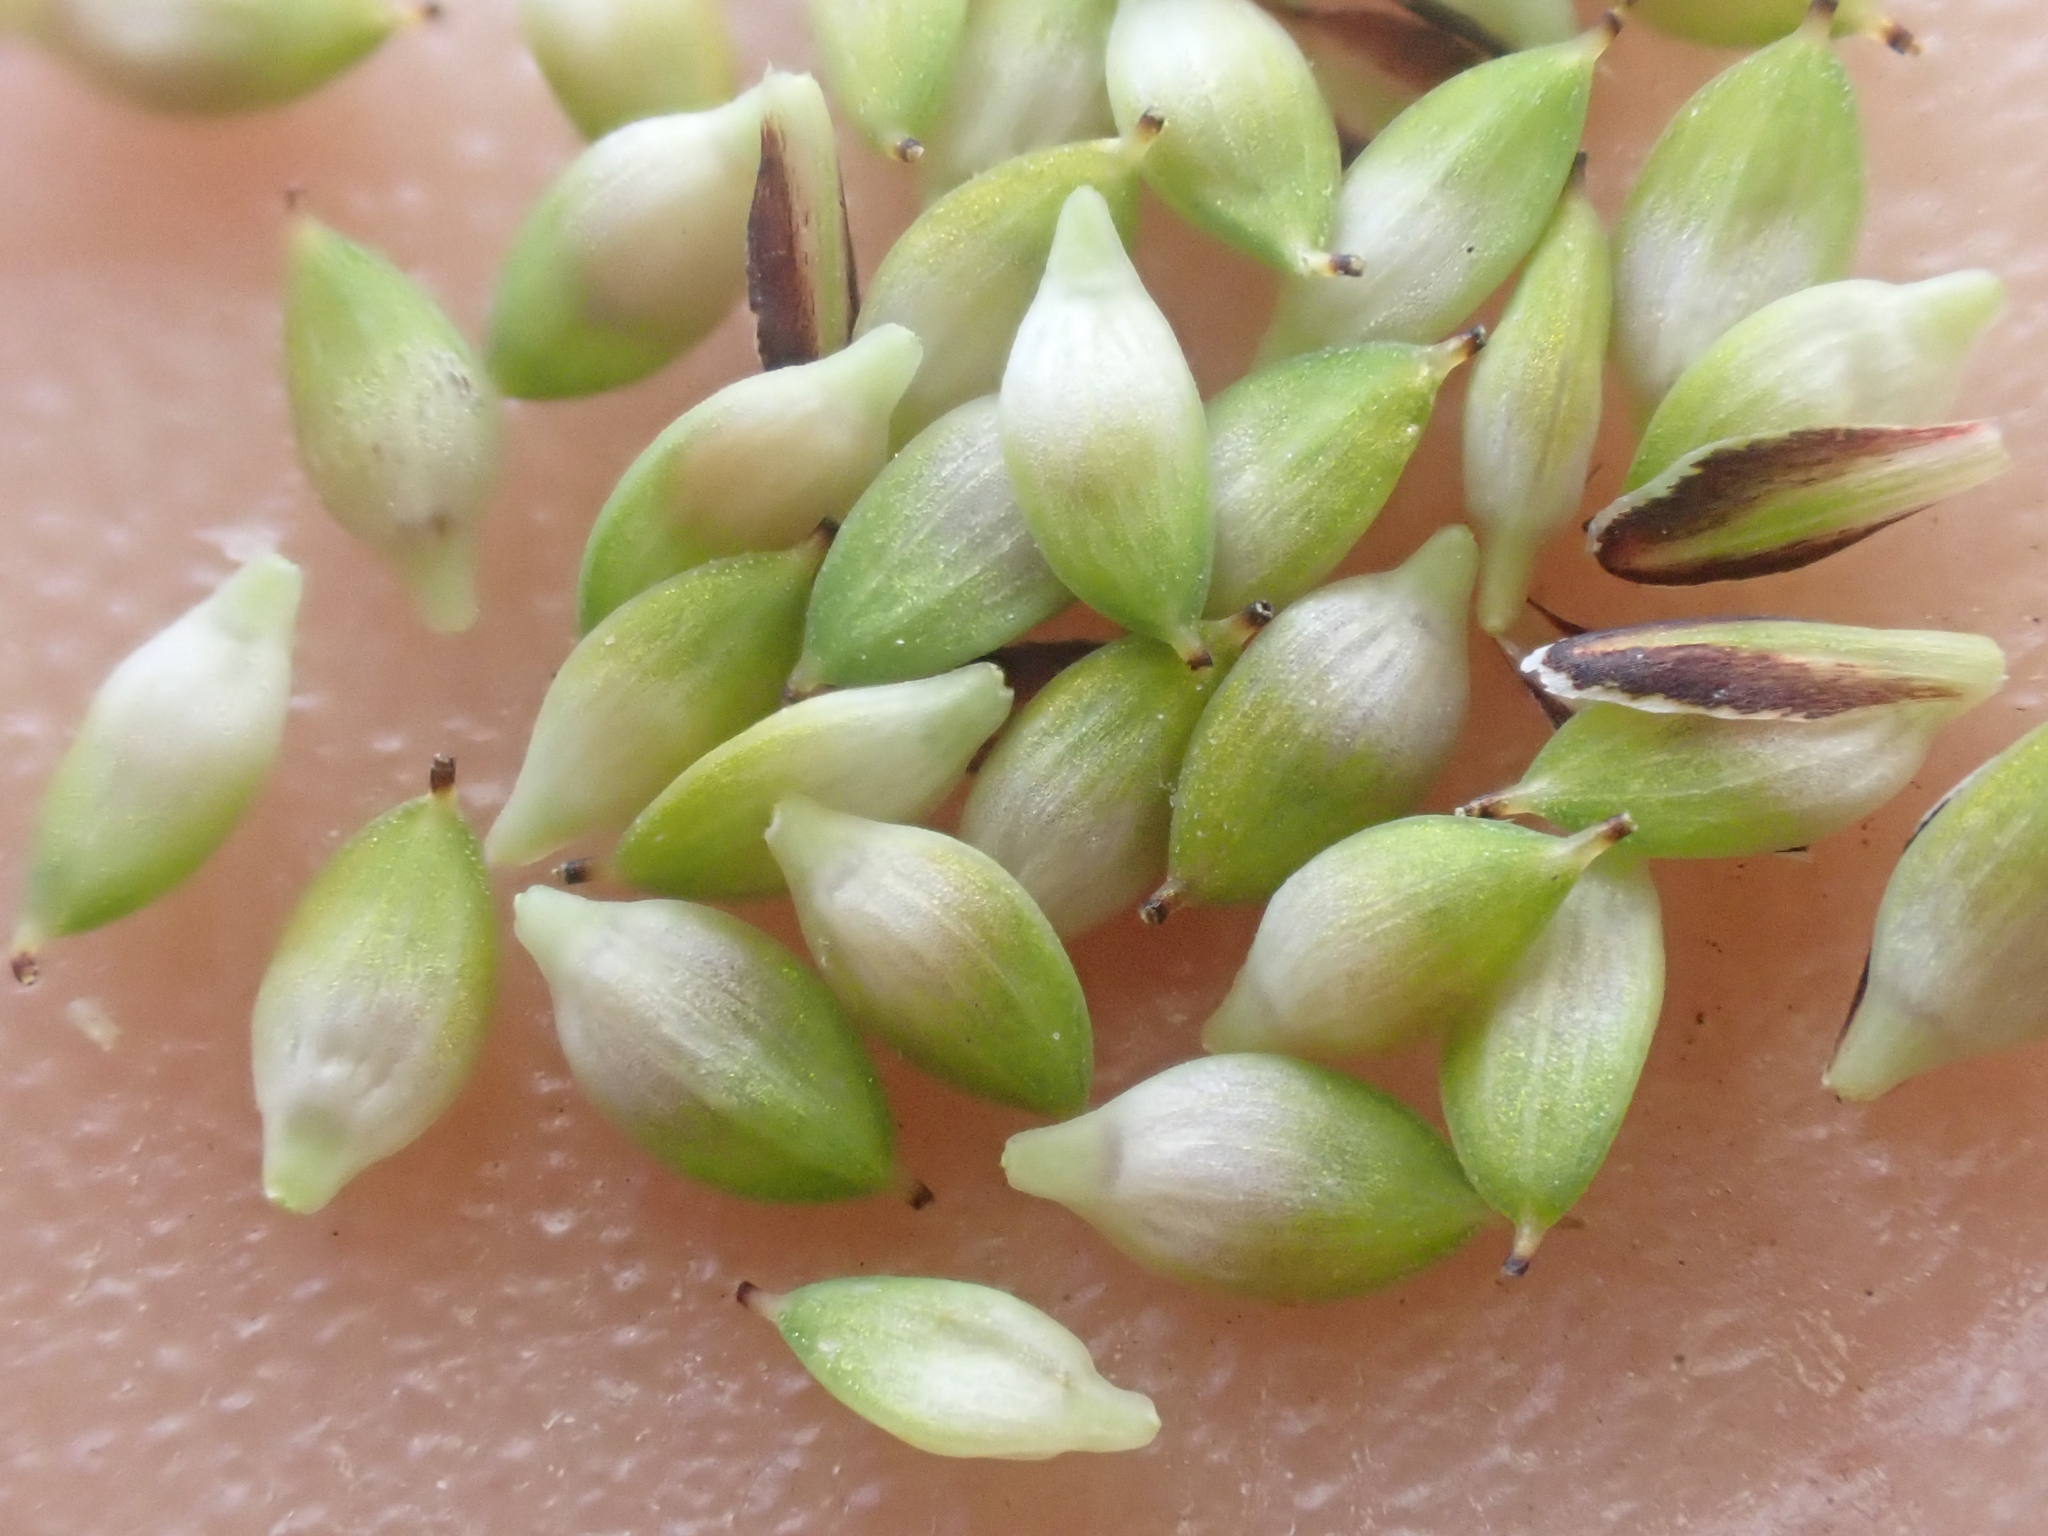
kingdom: Plantae
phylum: Tracheophyta
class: Liliopsida
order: Poales
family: Cyperaceae
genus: Carex
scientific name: Carex kelloggii
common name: Kellogg's sedge
